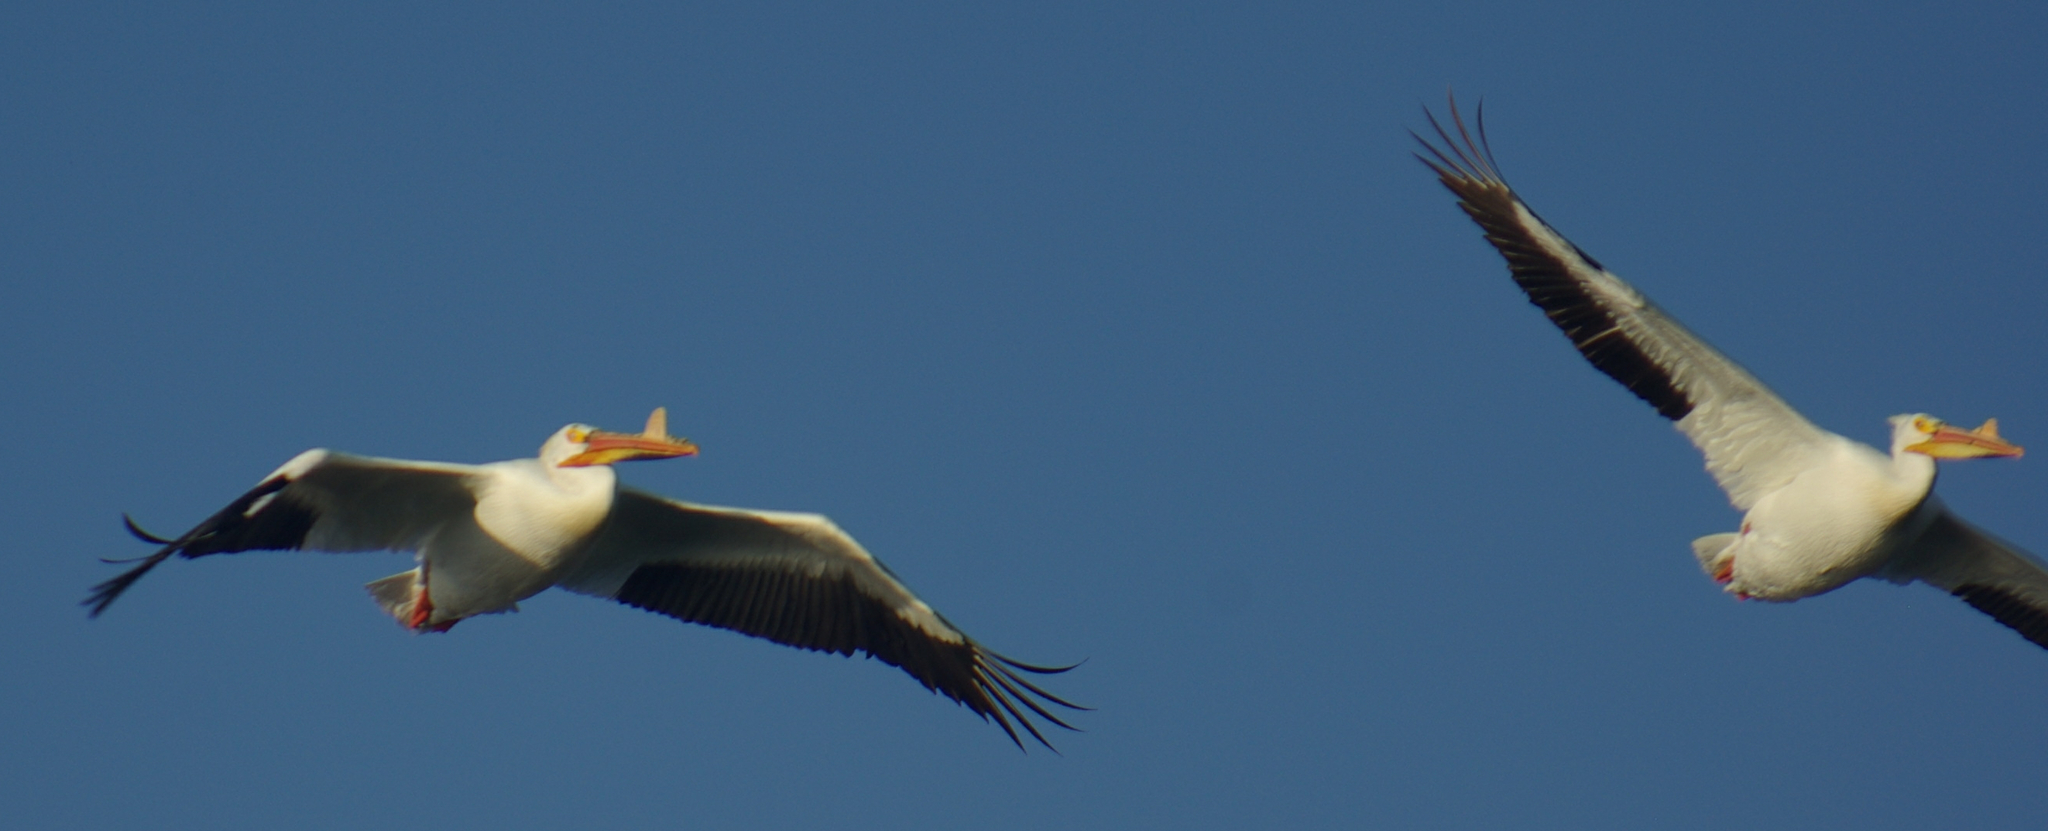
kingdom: Animalia
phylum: Chordata
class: Aves
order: Pelecaniformes
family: Pelecanidae
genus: Pelecanus
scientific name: Pelecanus erythrorhynchos
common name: American white pelican
